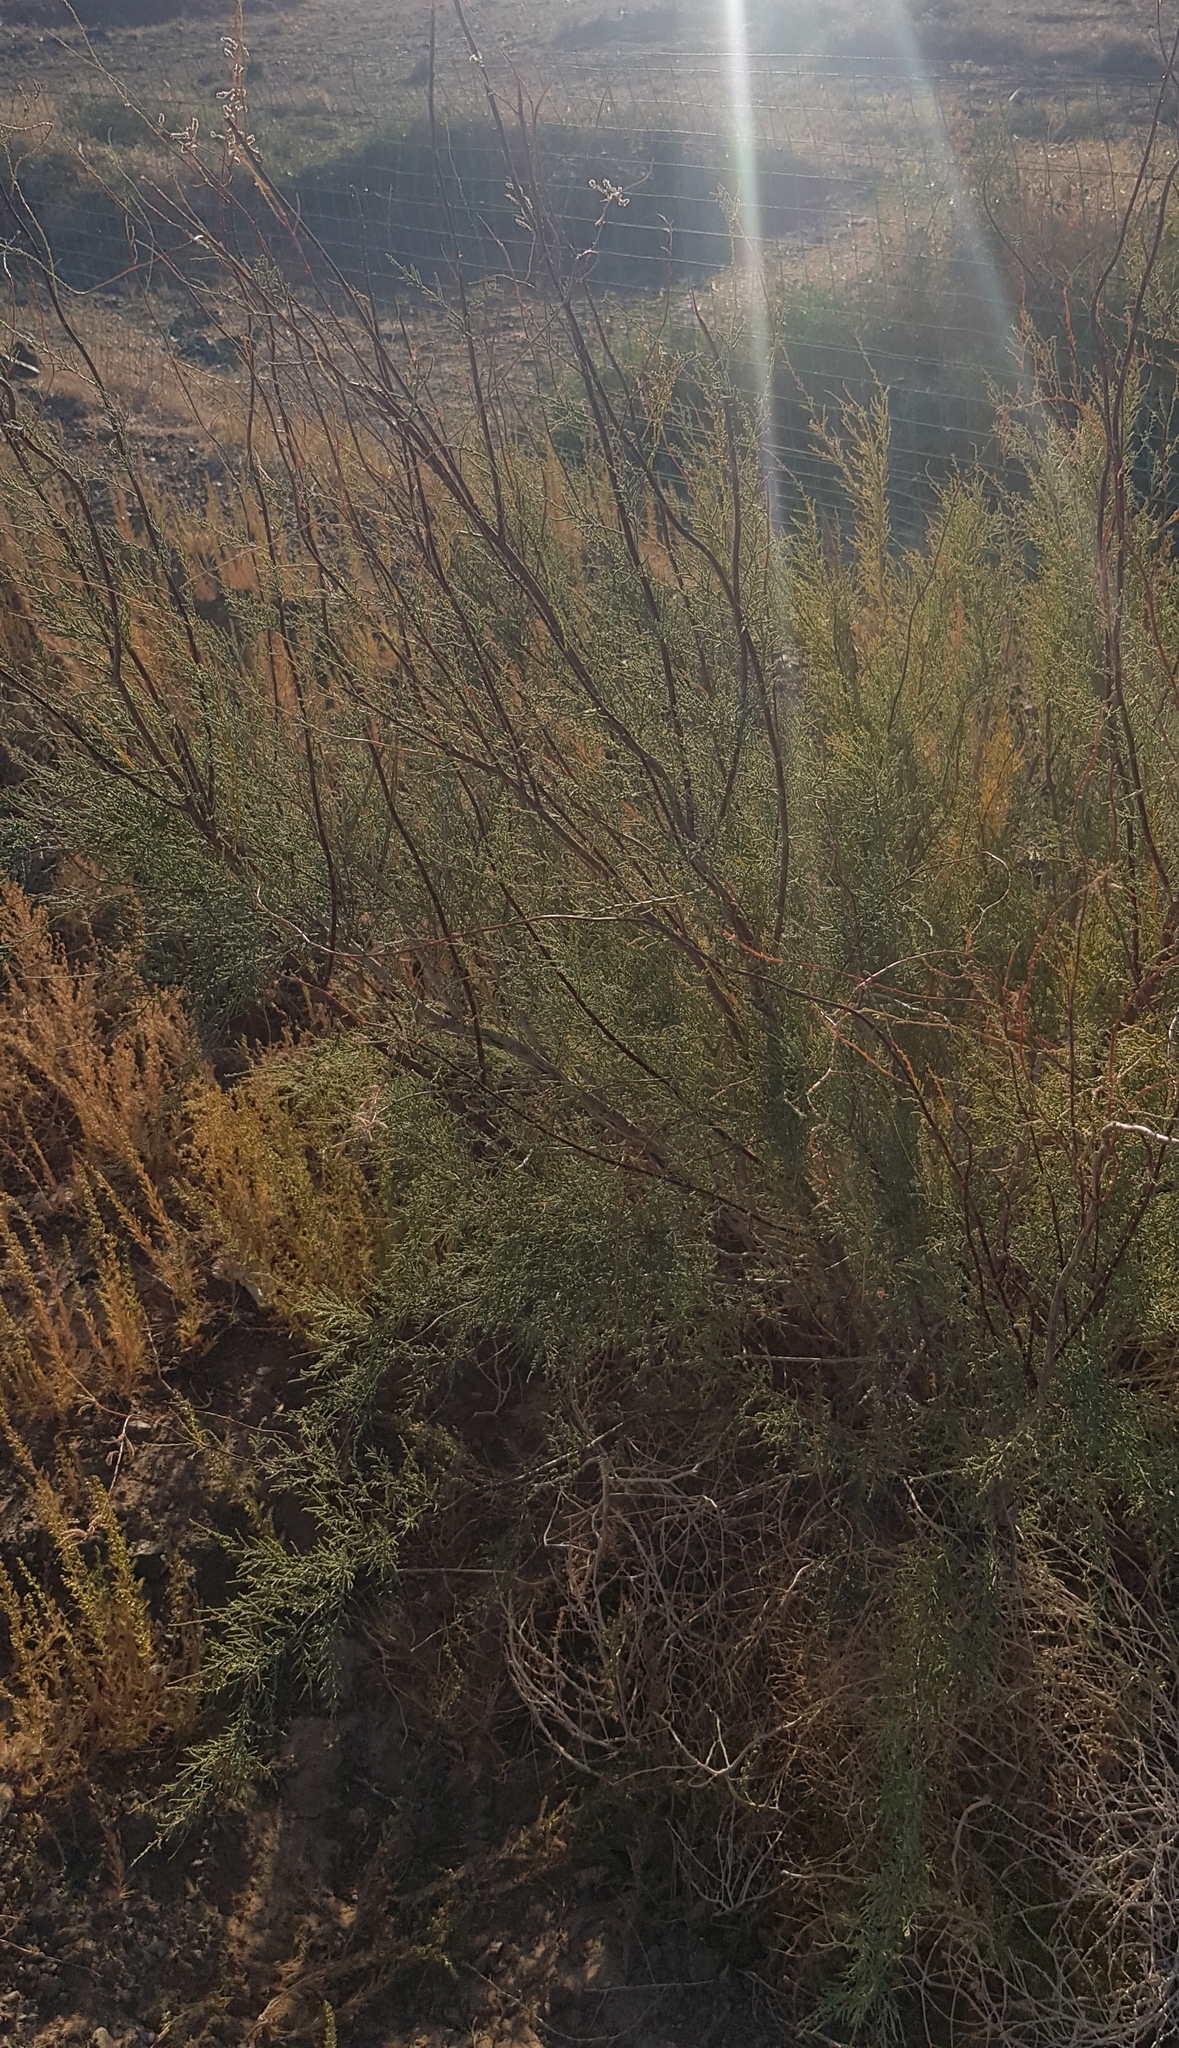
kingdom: Plantae
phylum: Tracheophyta
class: Magnoliopsida
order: Caryophyllales
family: Tamaricaceae
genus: Tamarix
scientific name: Tamarix ramosissima
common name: Pink tamarisk
